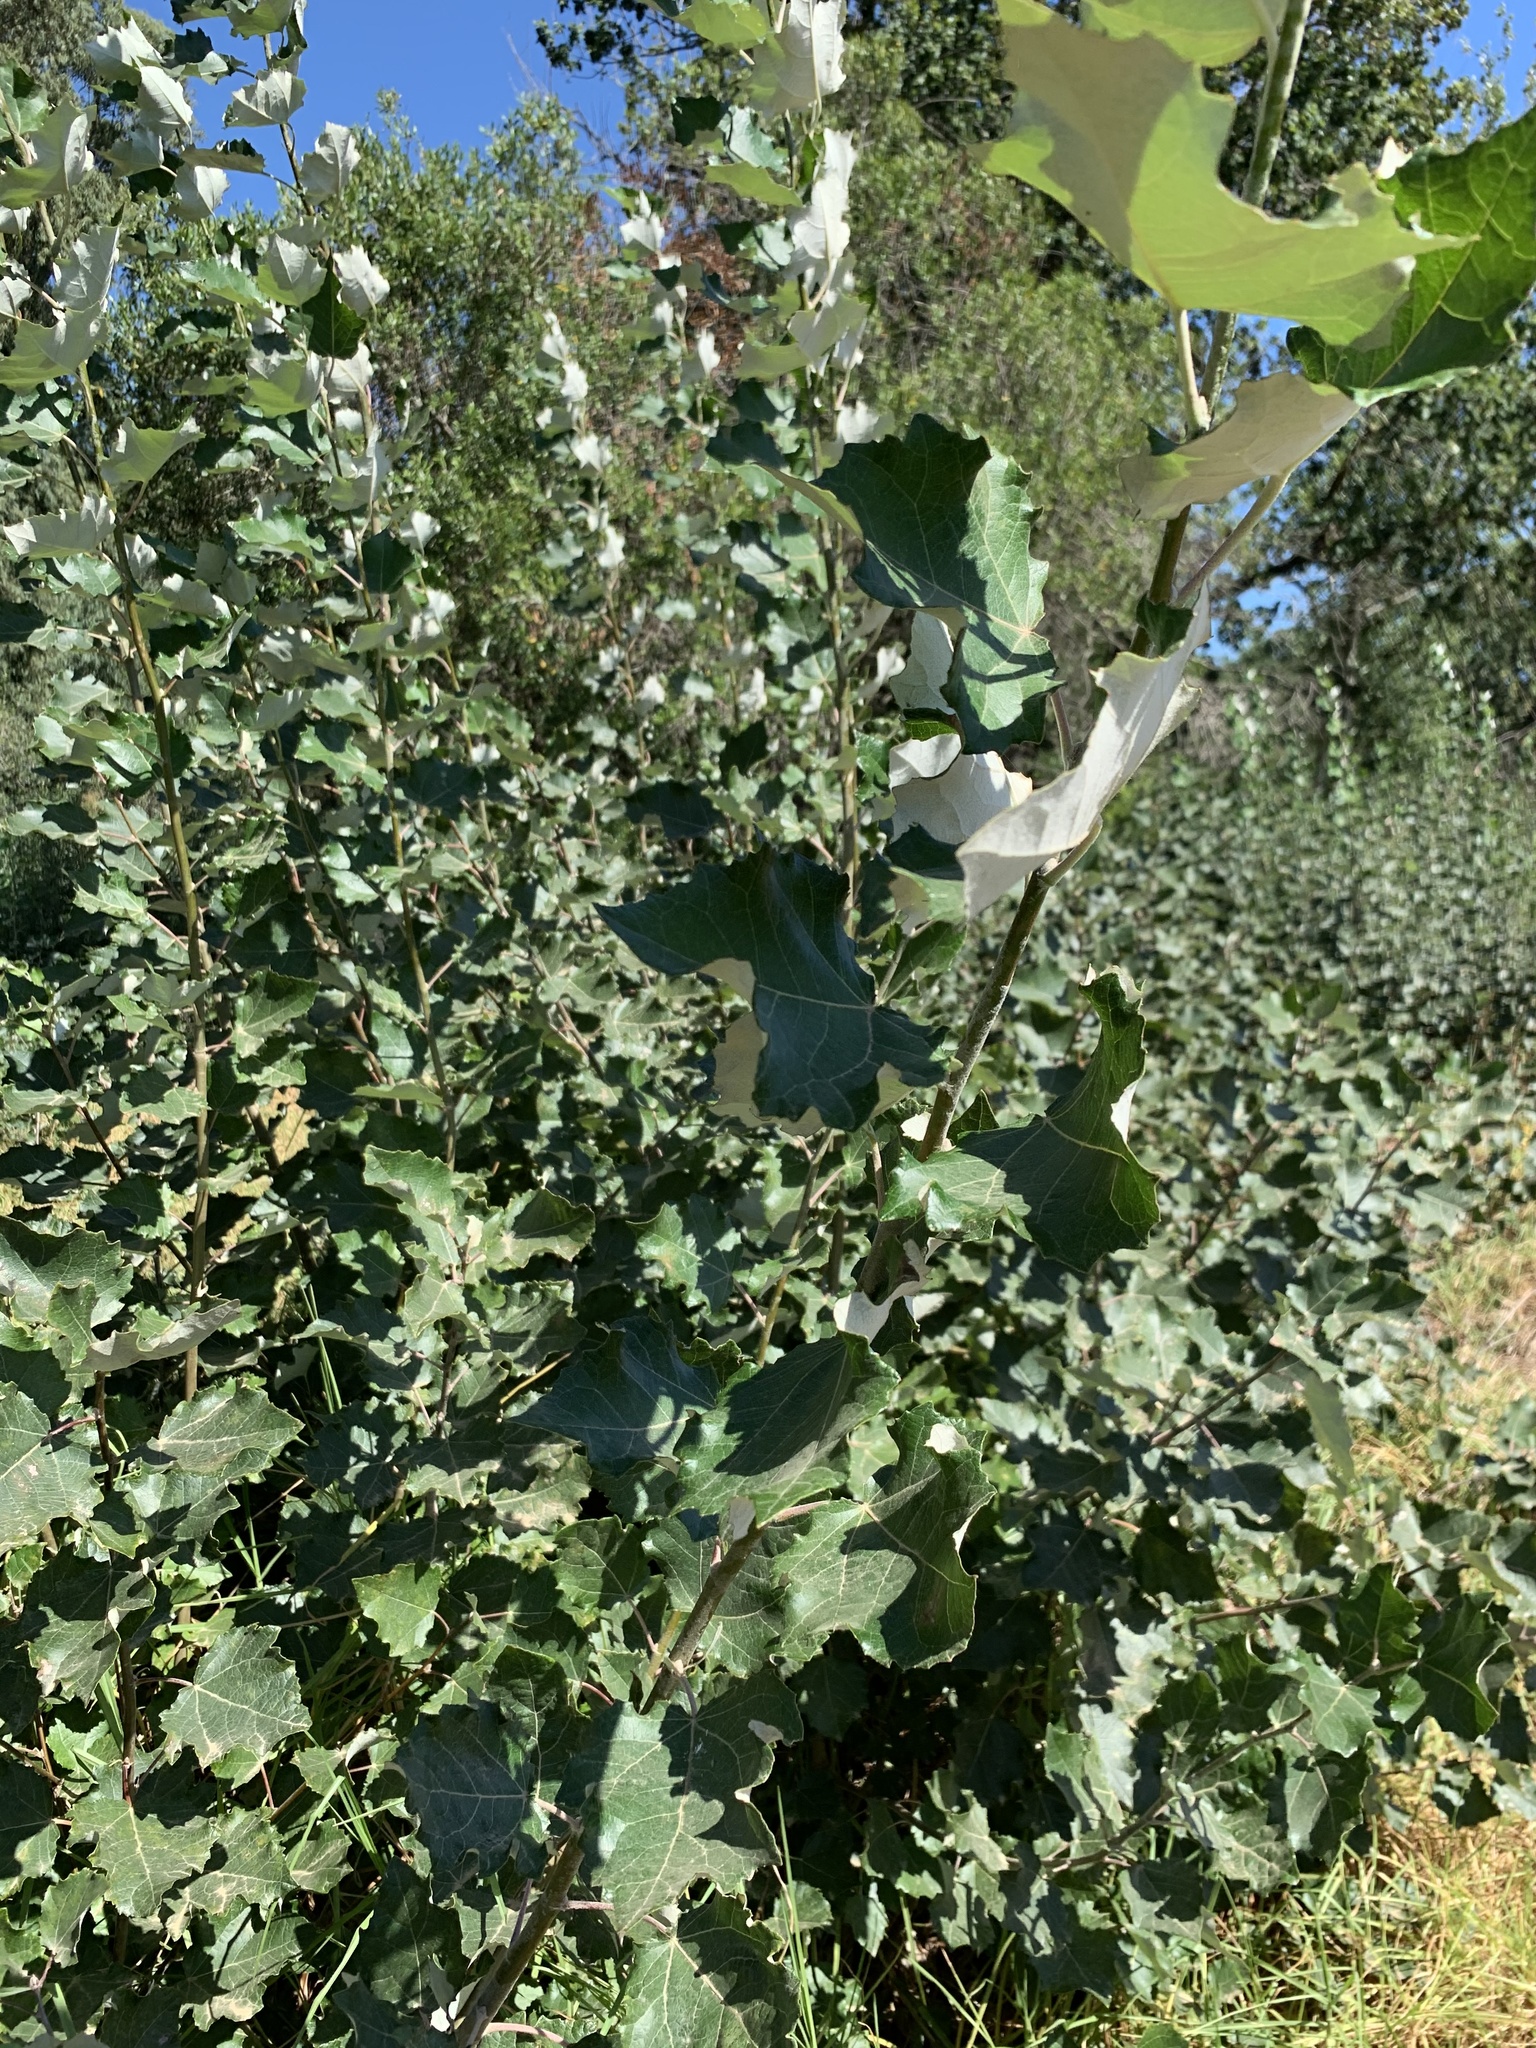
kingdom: Plantae
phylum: Tracheophyta
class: Magnoliopsida
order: Malpighiales
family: Salicaceae
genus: Populus
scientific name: Populus canescens
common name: Gray poplar
